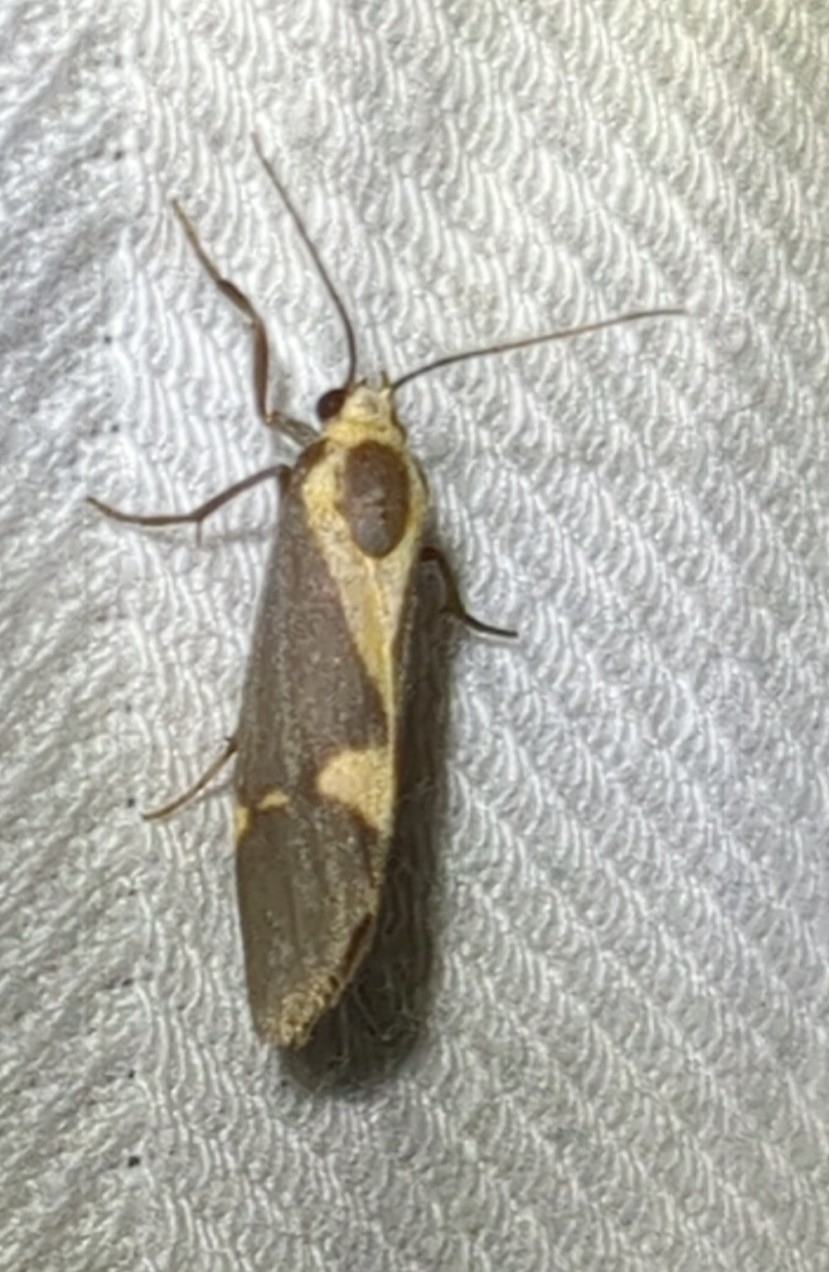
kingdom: Animalia
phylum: Arthropoda
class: Insecta
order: Lepidoptera
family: Erebidae
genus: Cisthene
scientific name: Cisthene tenuifascia
